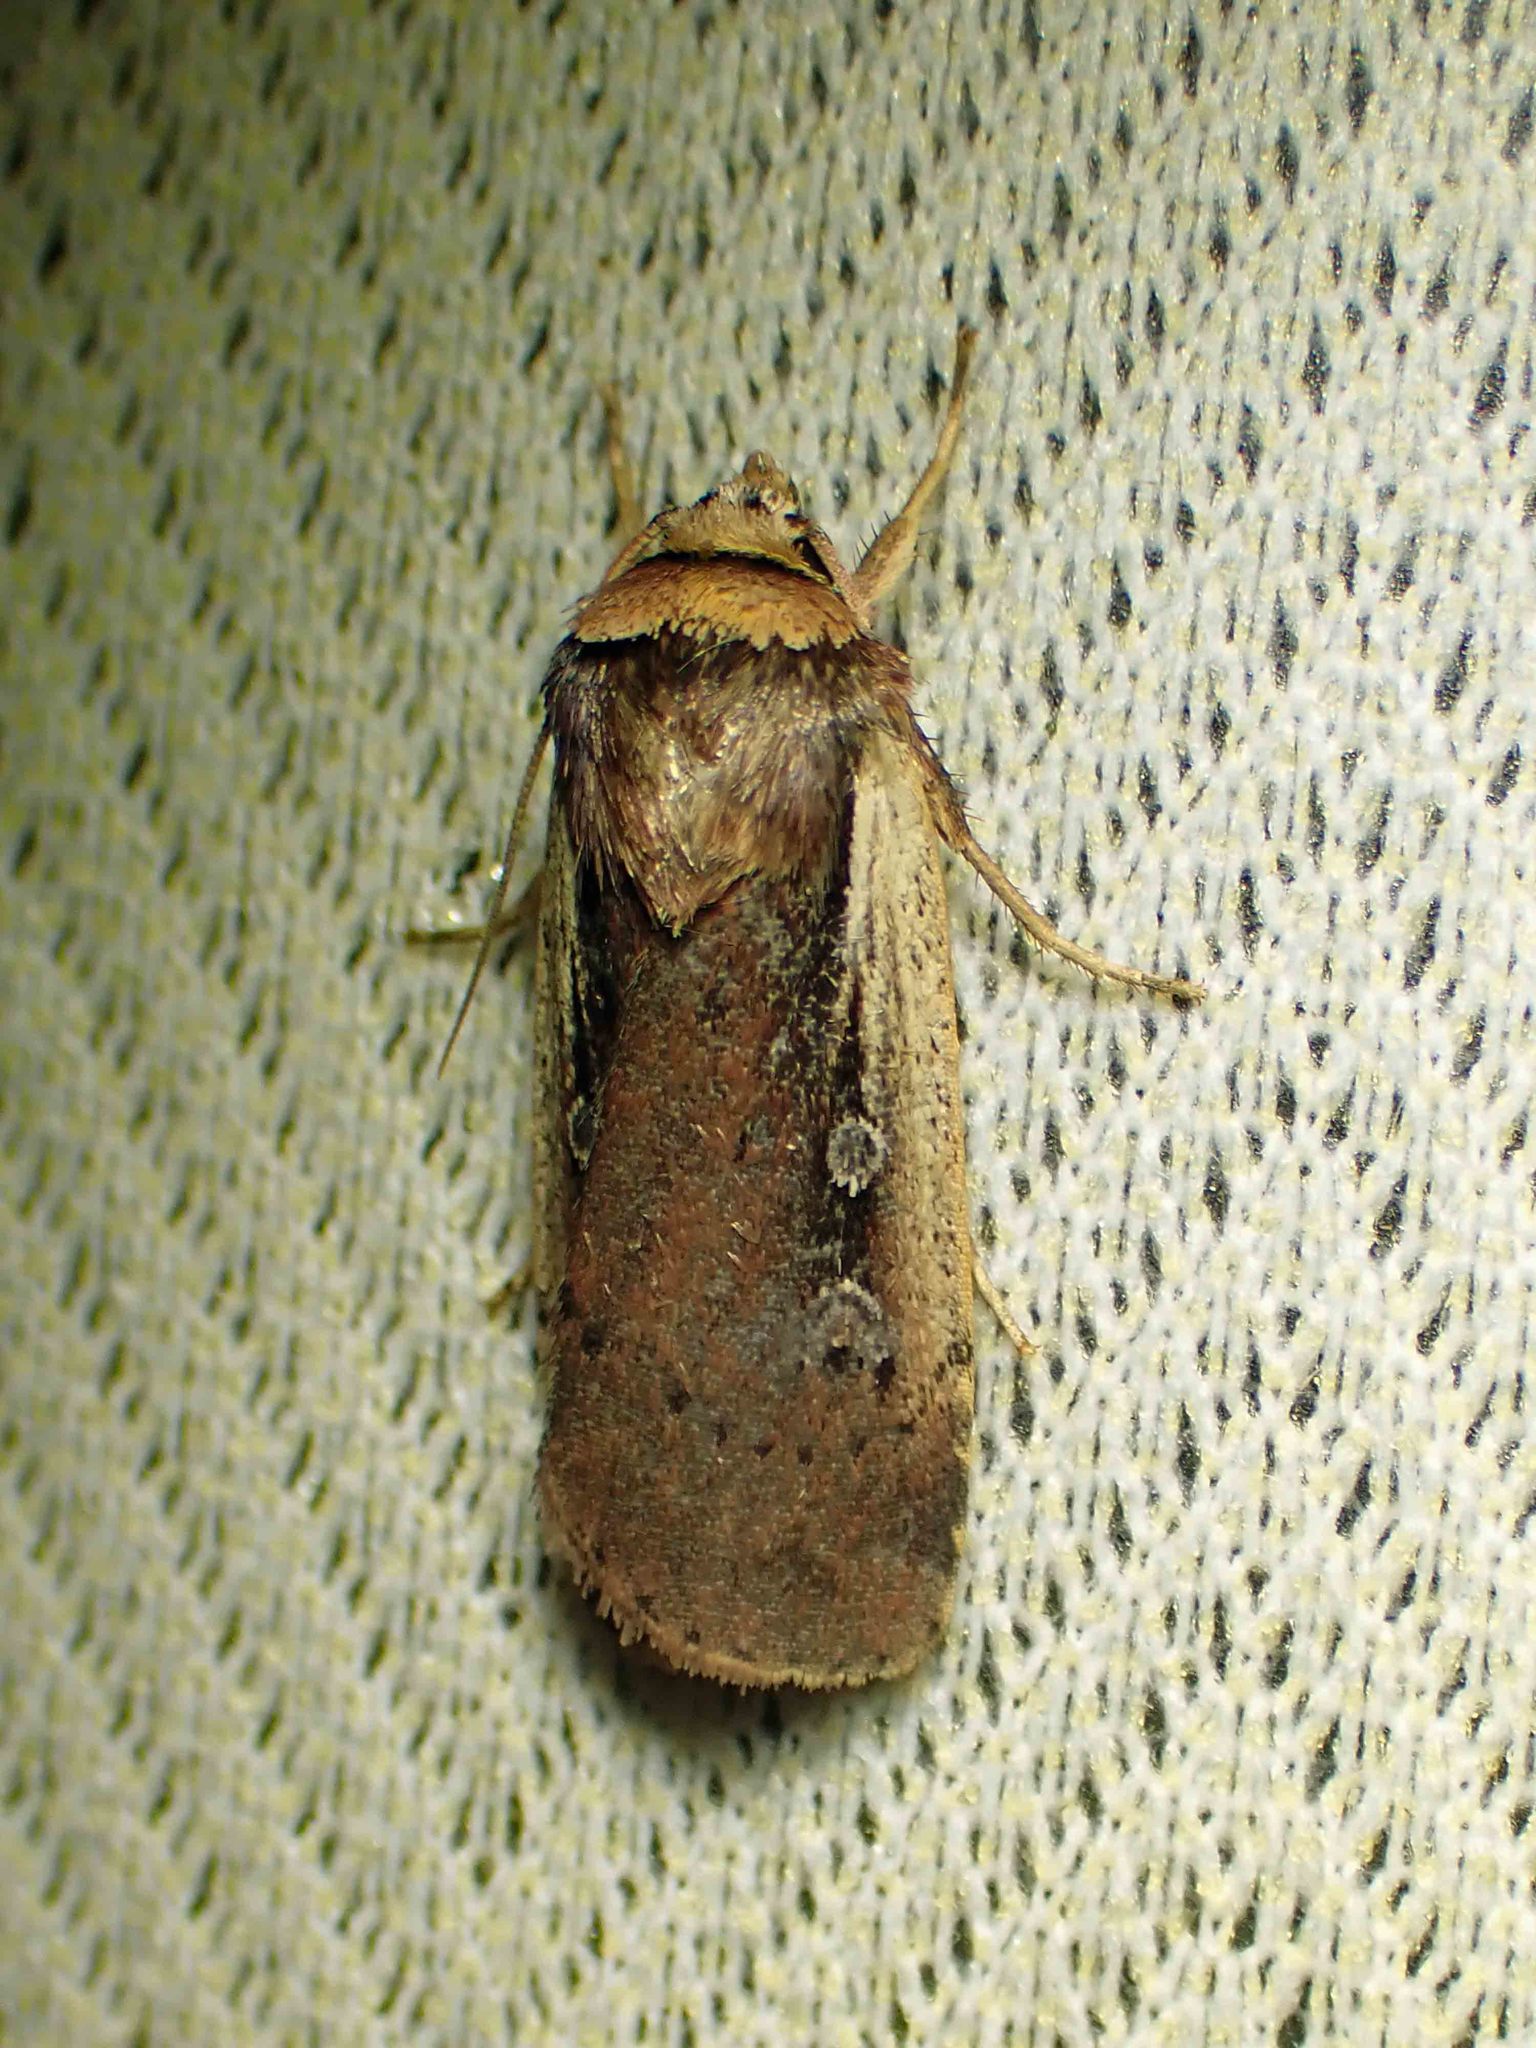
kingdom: Animalia
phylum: Arthropoda
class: Insecta
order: Lepidoptera
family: Noctuidae
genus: Ochropleura
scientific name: Ochropleura implecta
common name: Flame-shouldered dart
